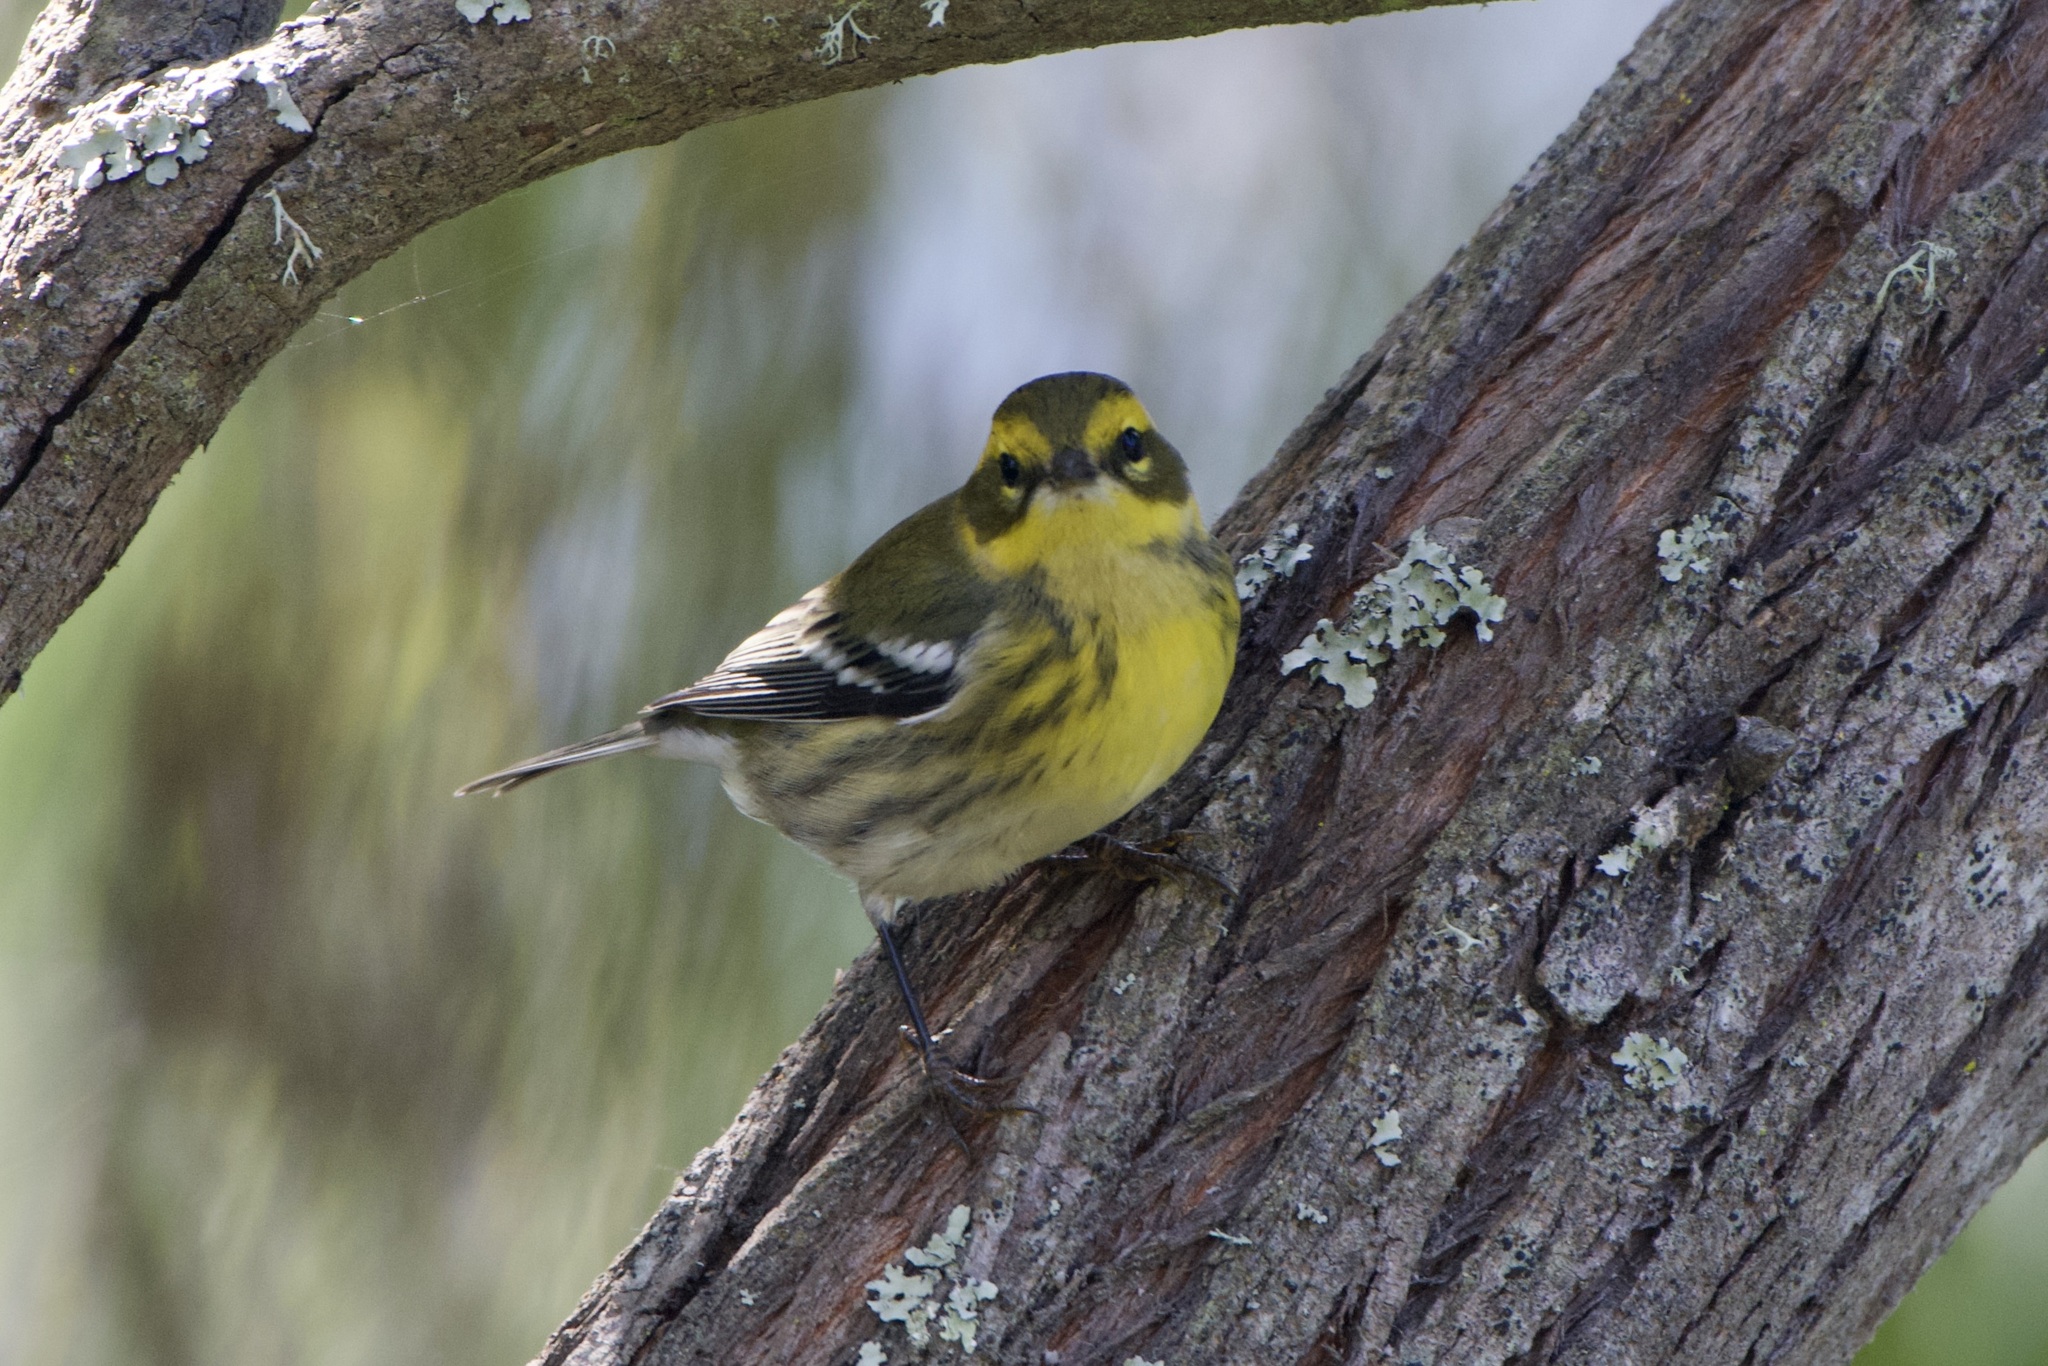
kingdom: Animalia
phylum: Chordata
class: Aves
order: Passeriformes
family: Parulidae
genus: Setophaga
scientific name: Setophaga townsendi
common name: Townsend's warbler
